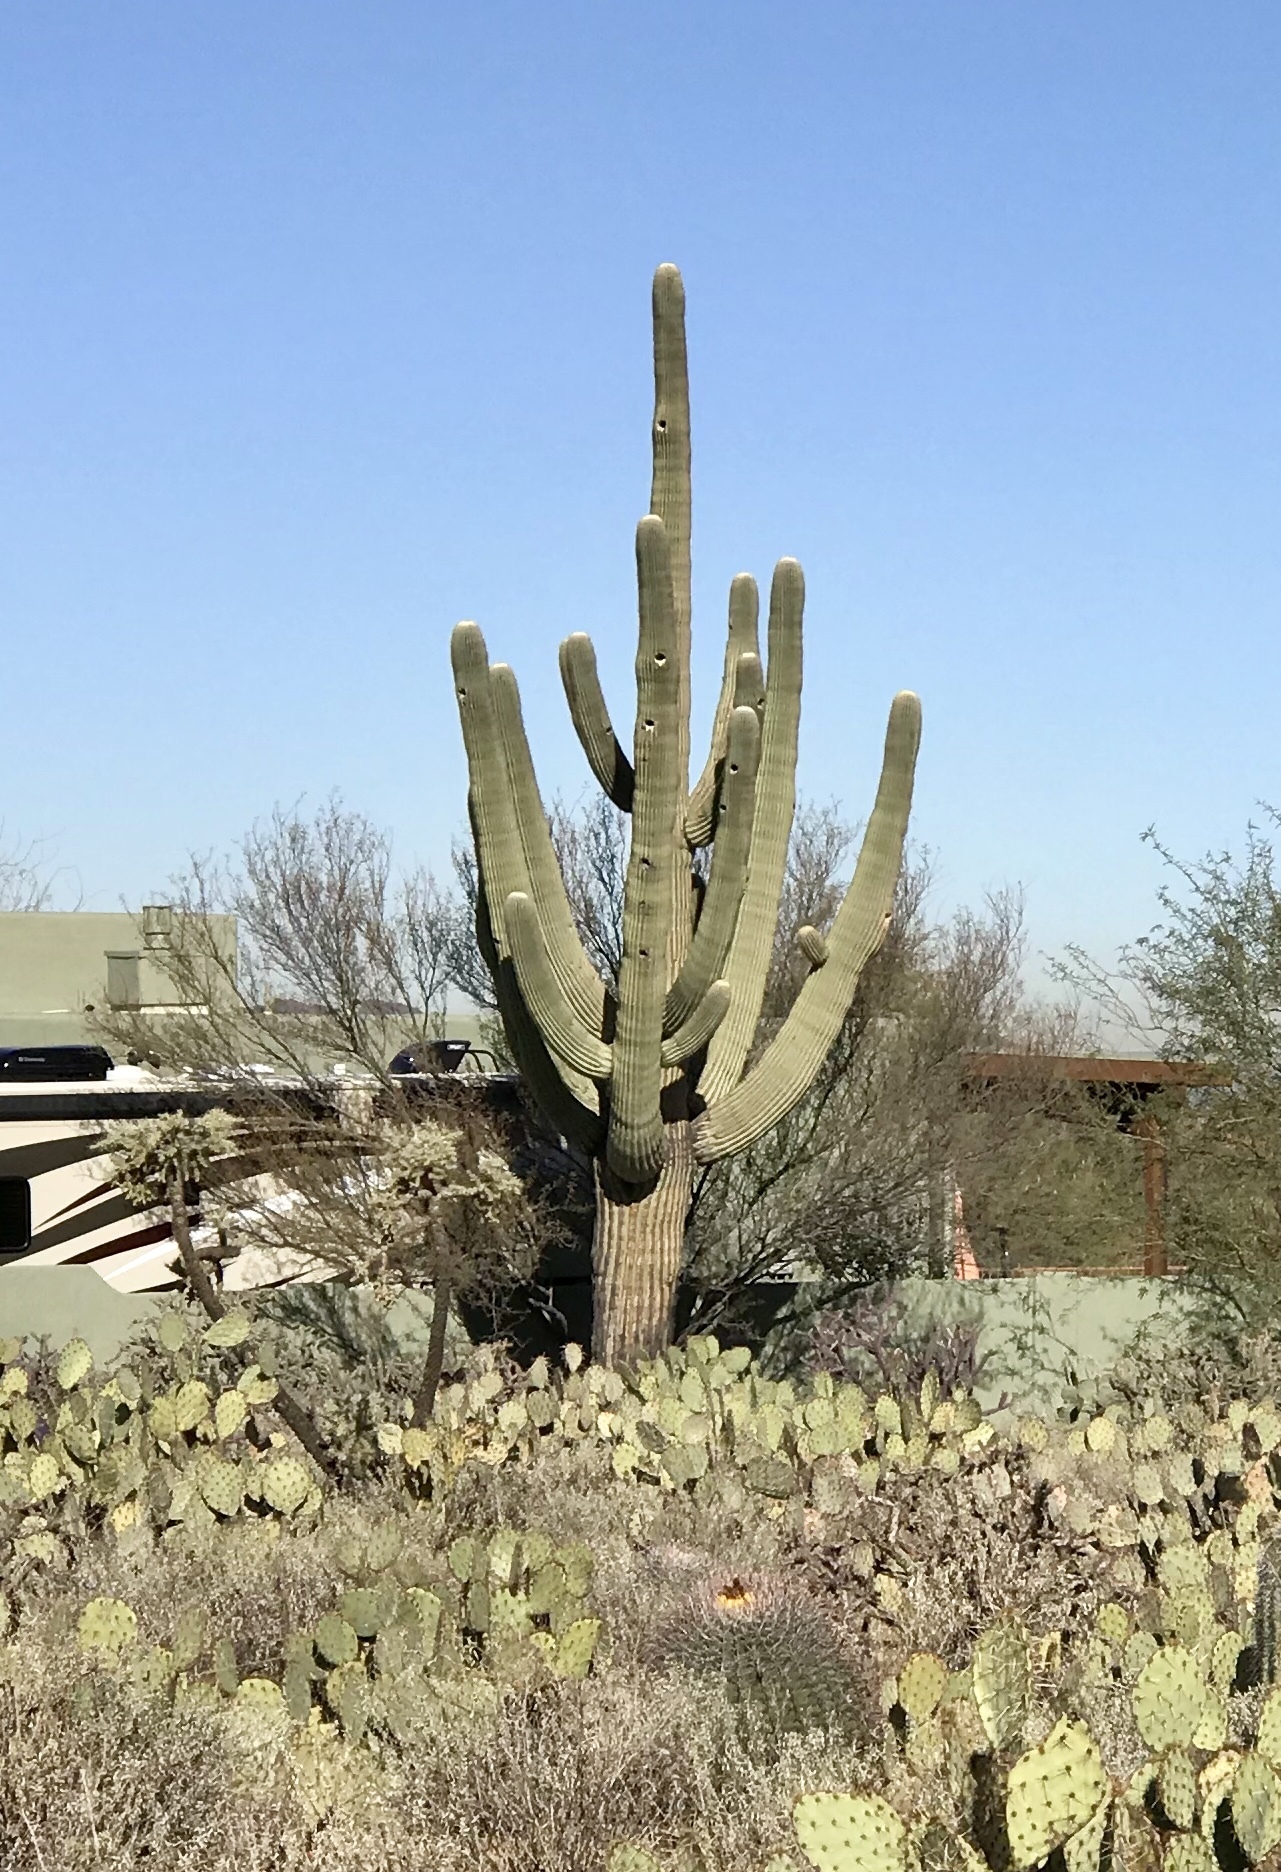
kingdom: Plantae
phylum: Tracheophyta
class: Magnoliopsida
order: Caryophyllales
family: Cactaceae
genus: Carnegiea
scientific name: Carnegiea gigantea
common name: Saguaro
